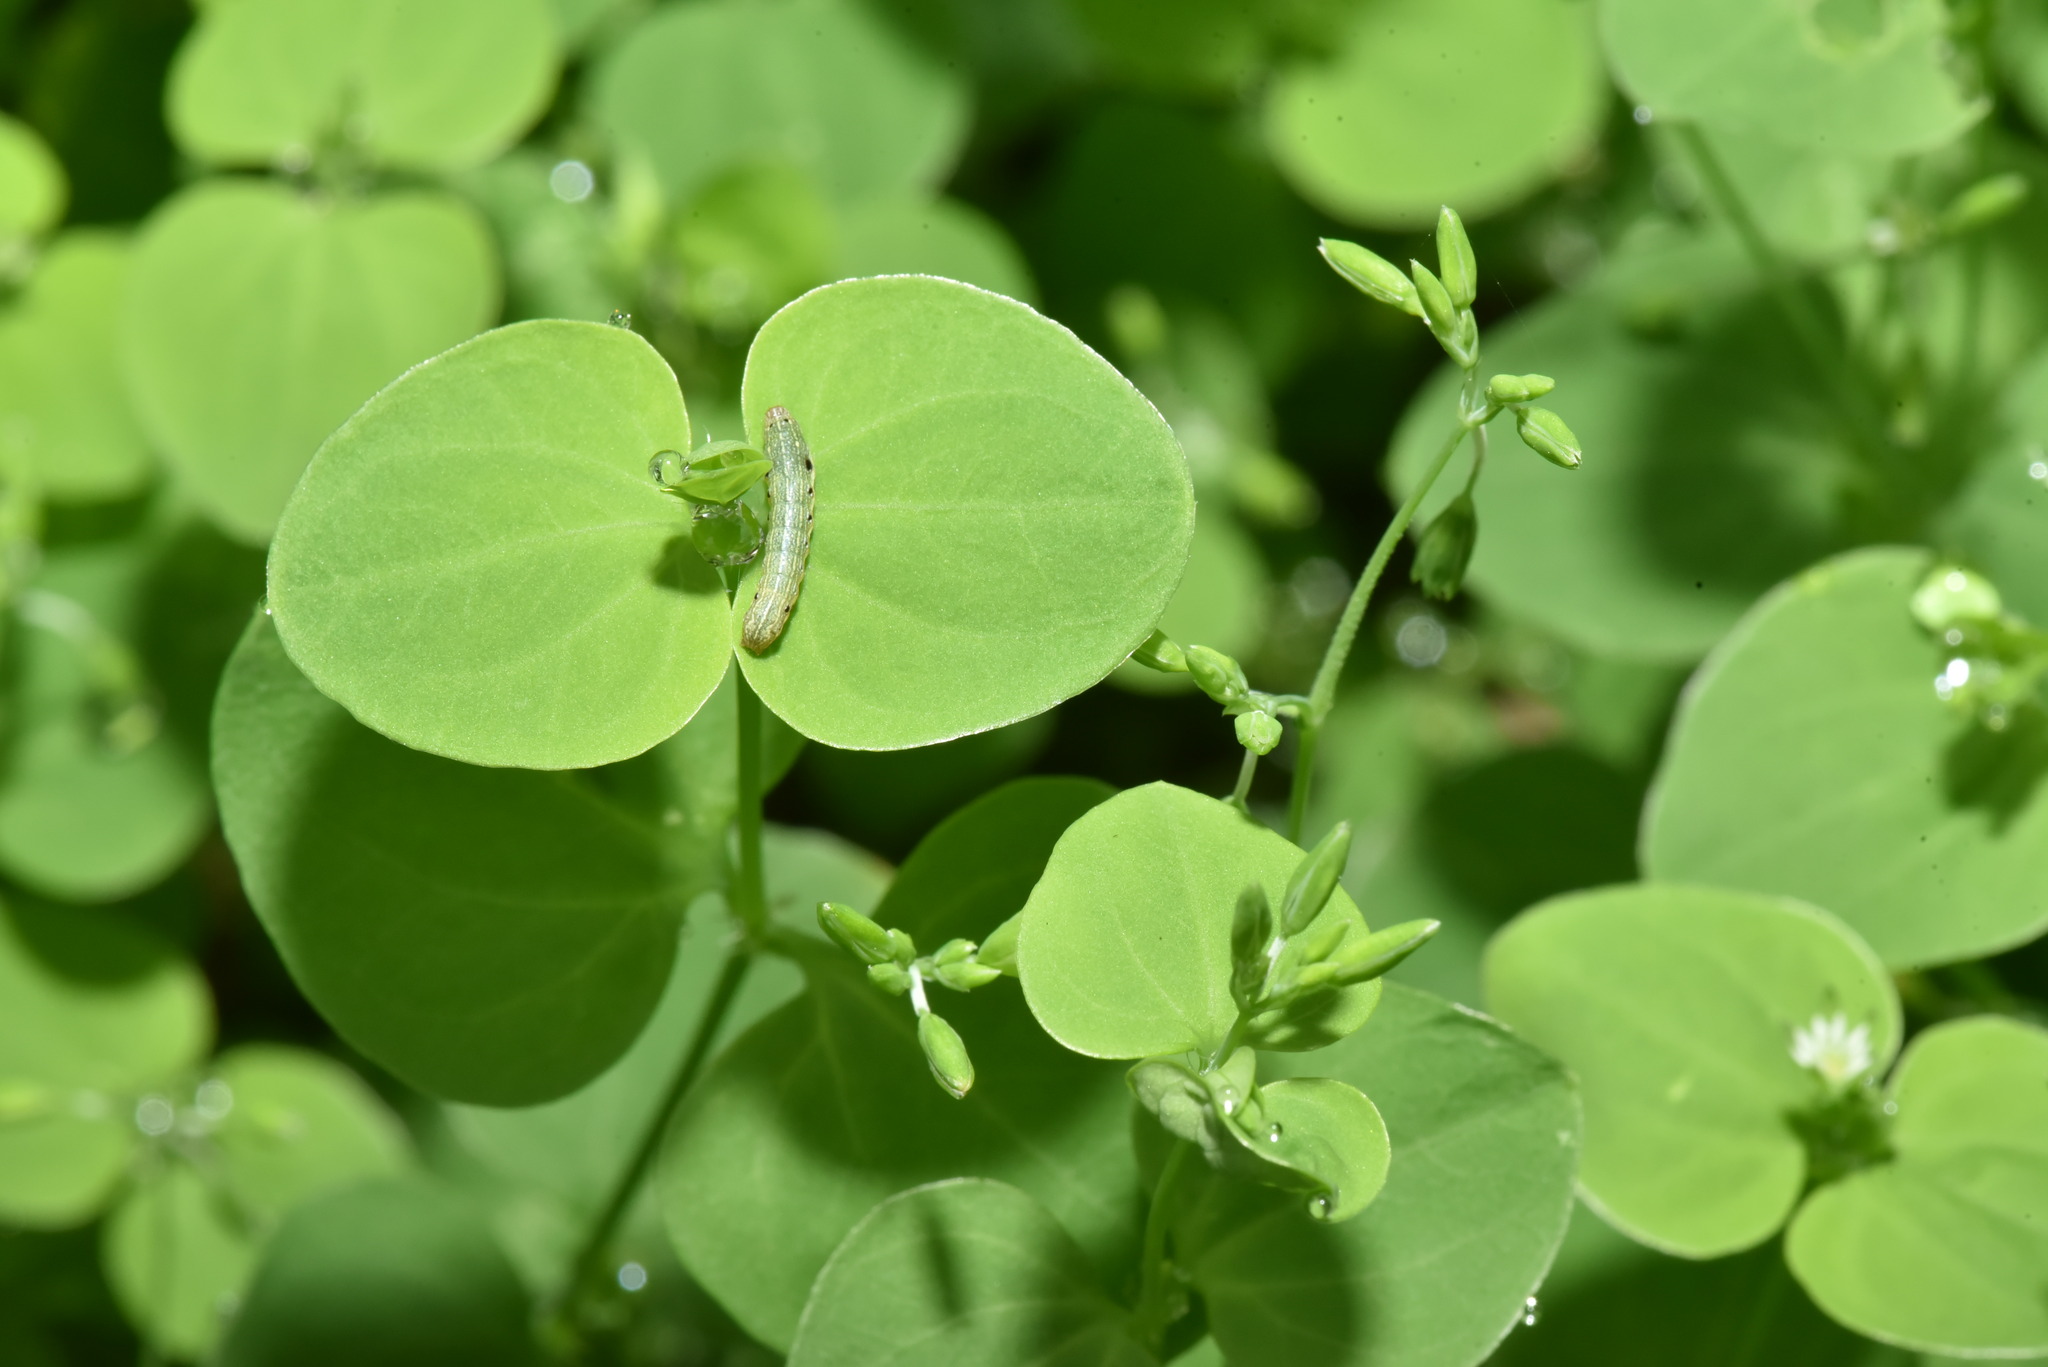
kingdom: Plantae
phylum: Tracheophyta
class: Magnoliopsida
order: Caryophyllales
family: Caryophyllaceae
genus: Drymaria
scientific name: Drymaria cordata
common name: Whitesnow
